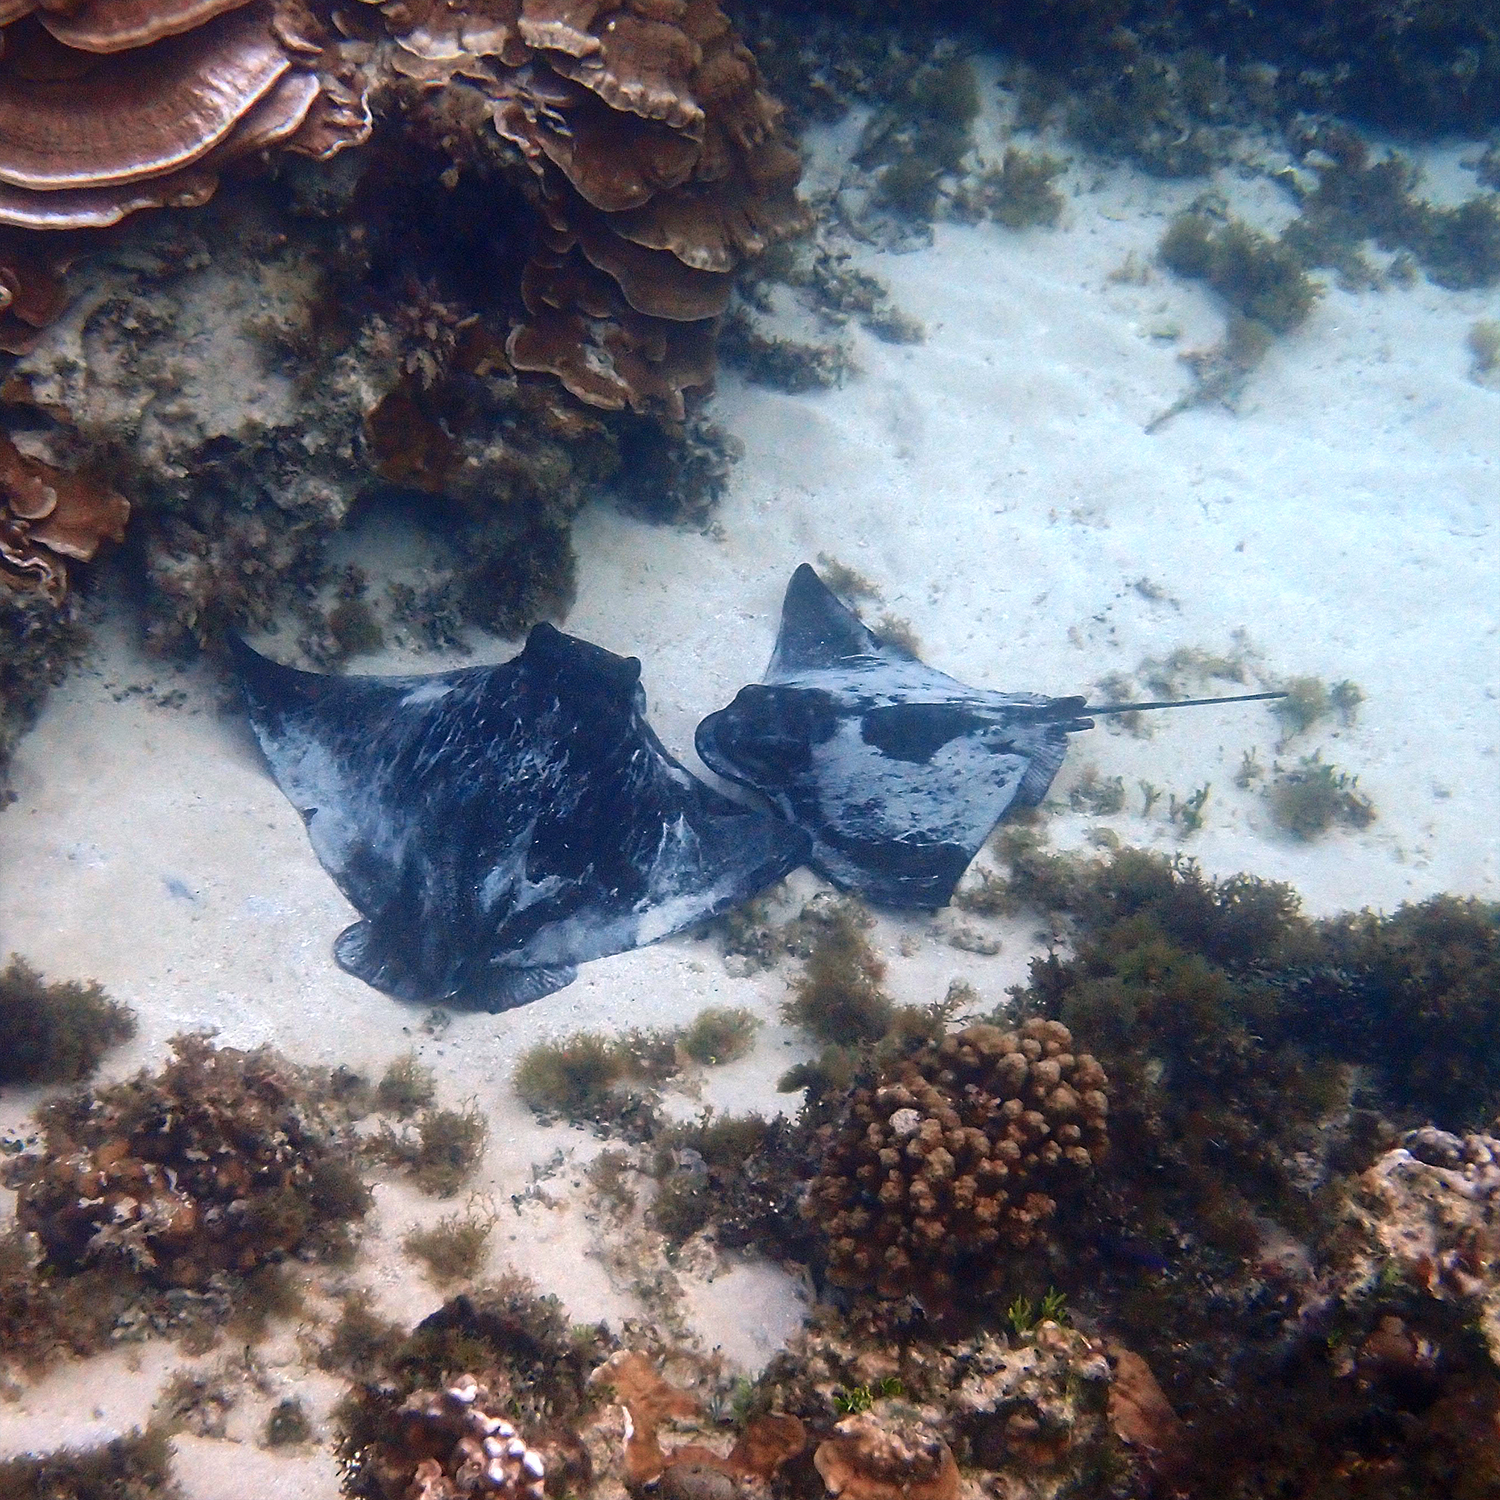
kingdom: Animalia
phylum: Chordata
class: Elasmobranchii
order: Myliobatiformes
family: Myliobatidae
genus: Myliobatis
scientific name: Myliobatis tenuicaudatus
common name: Eagle ray
